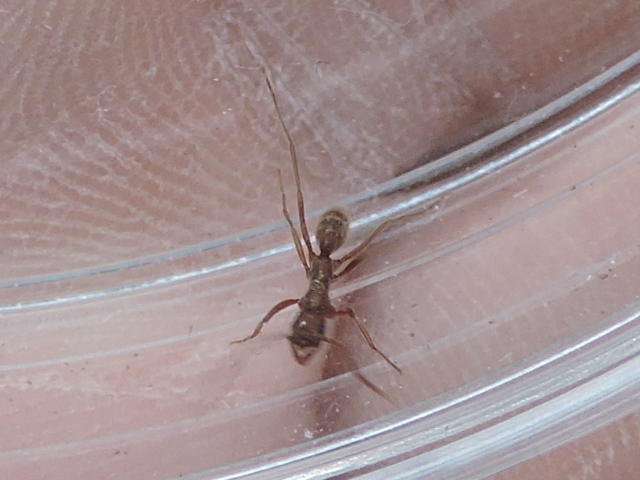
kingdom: Animalia
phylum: Arthropoda
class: Insecta
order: Hymenoptera
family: Formicidae
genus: Leptogenys
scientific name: Leptogenys elongata
